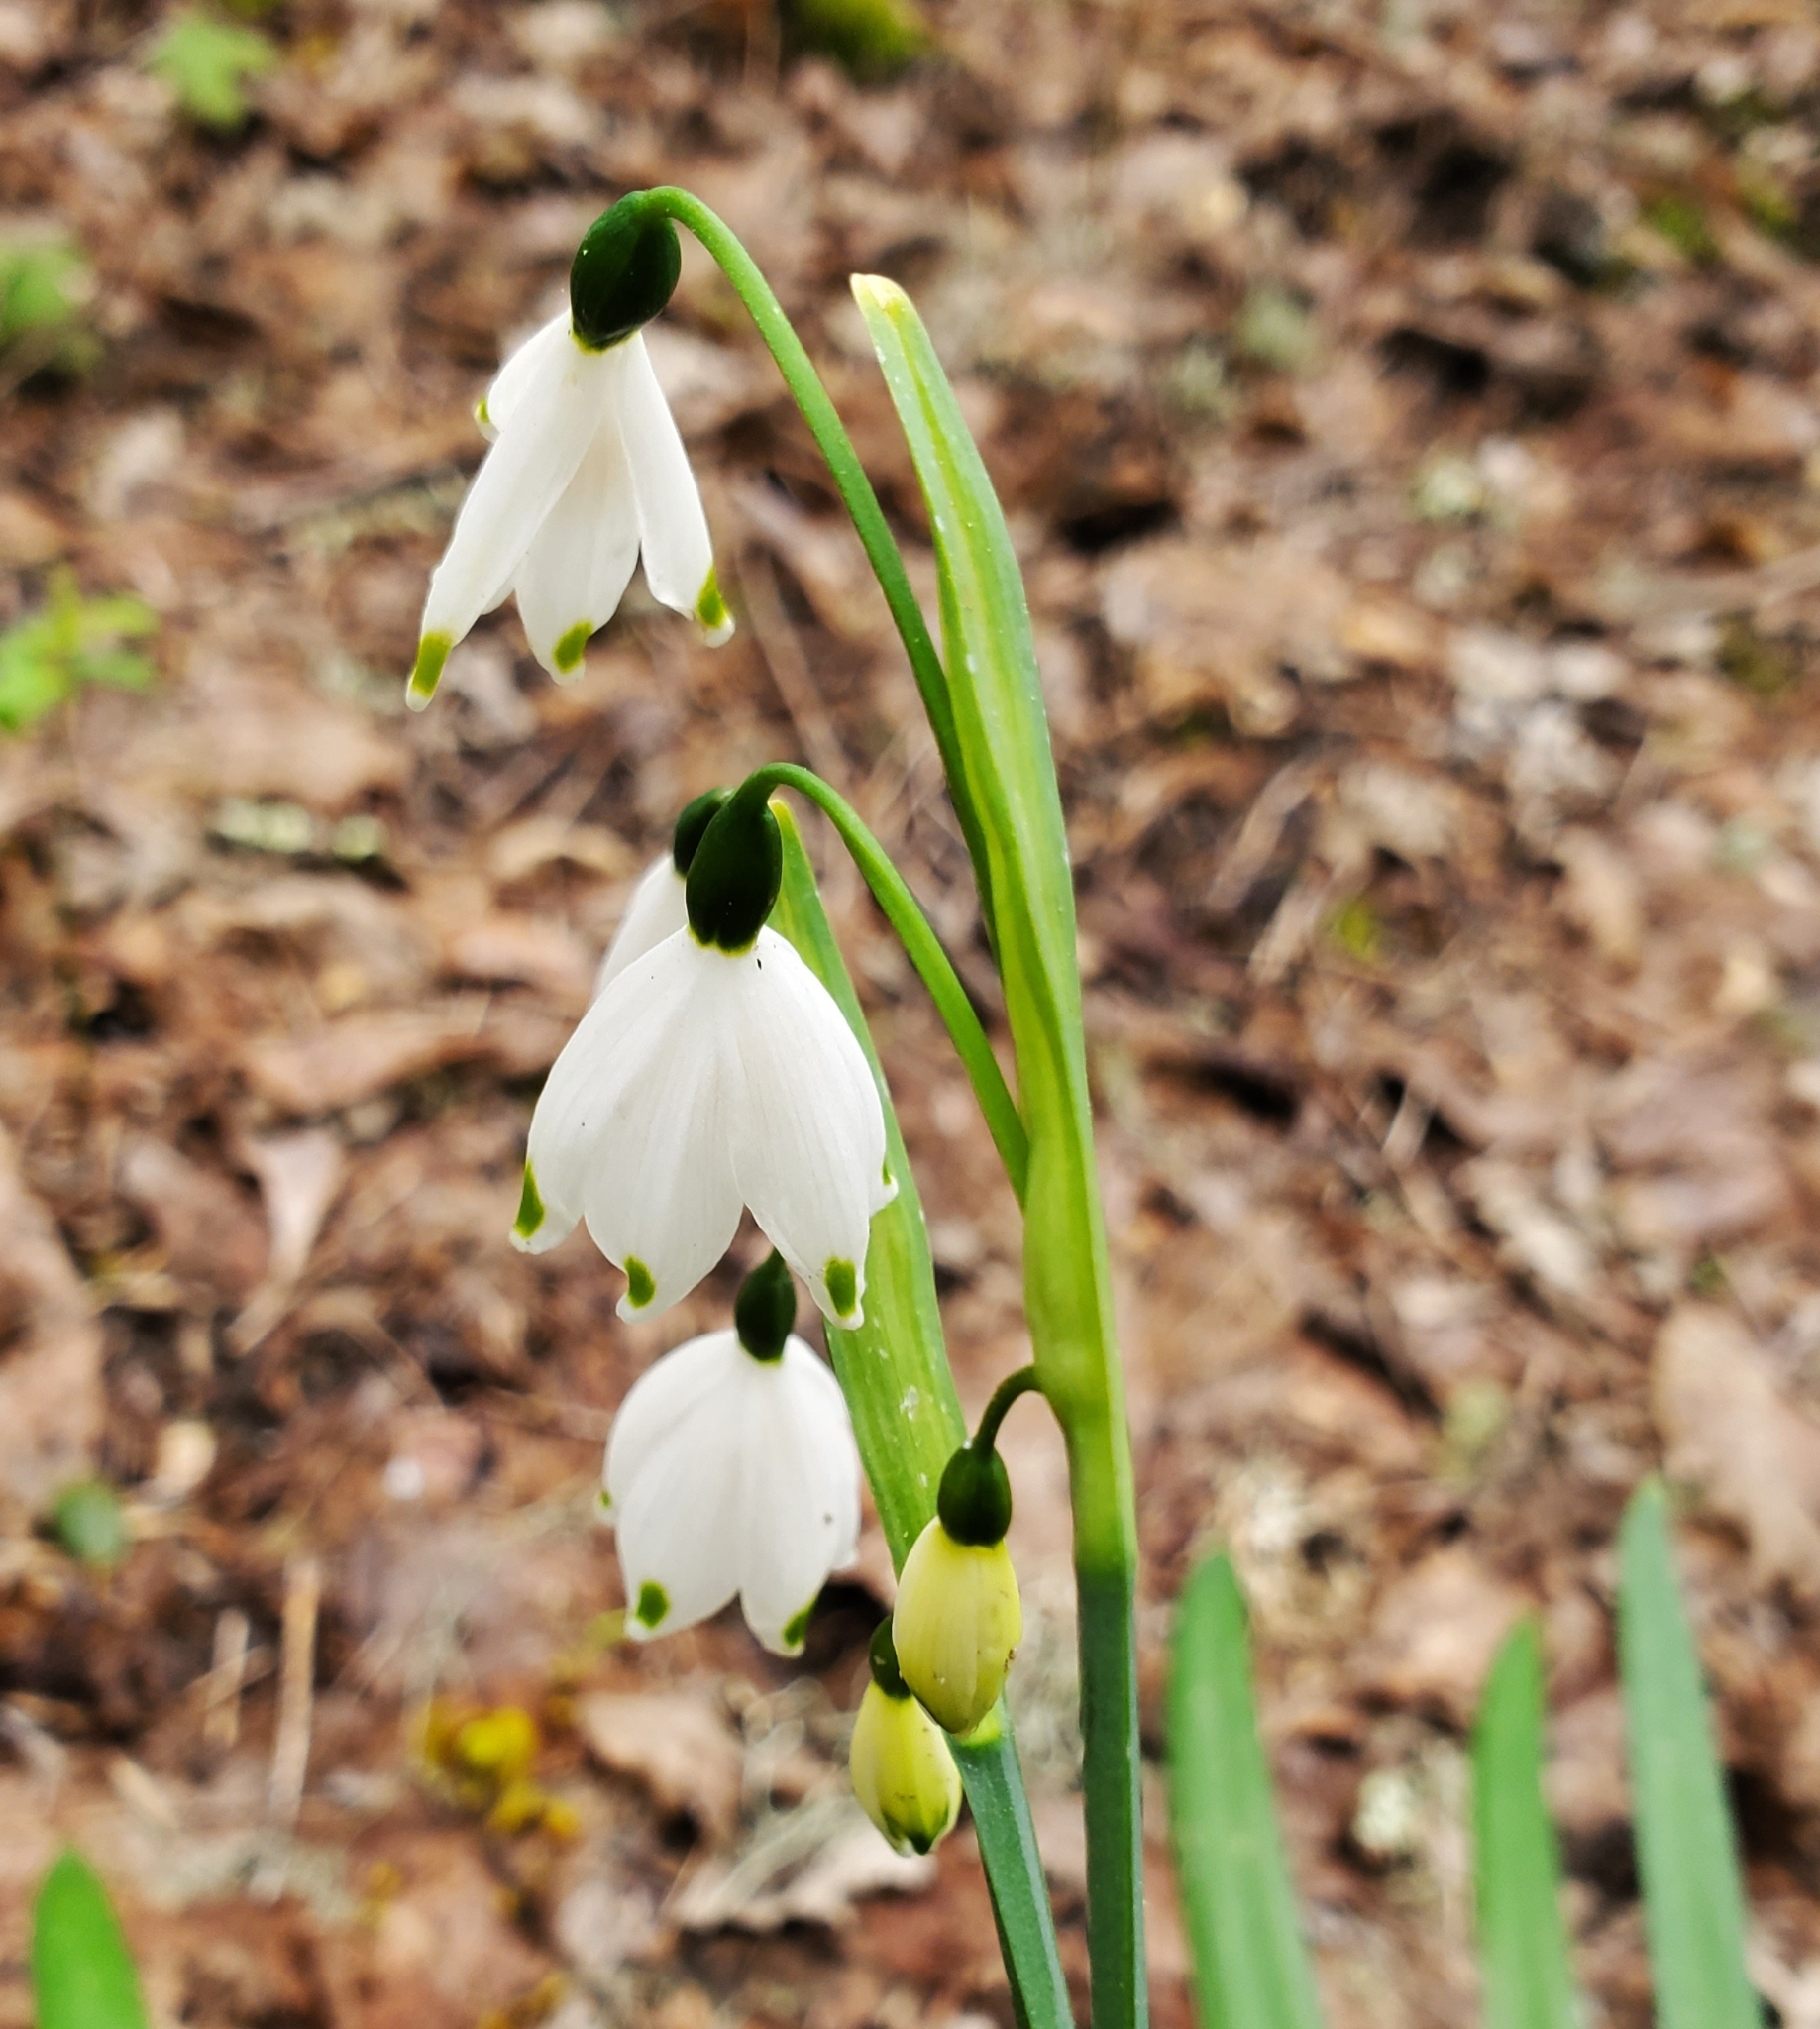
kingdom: Plantae
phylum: Tracheophyta
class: Liliopsida
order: Asparagales
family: Amaryllidaceae
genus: Leucojum
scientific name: Leucojum aestivum
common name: Summer snowflake
